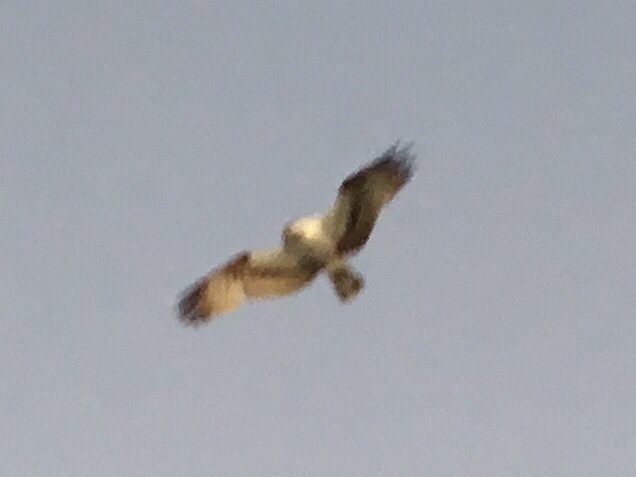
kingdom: Animalia
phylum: Chordata
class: Aves
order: Accipitriformes
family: Pandionidae
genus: Pandion
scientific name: Pandion haliaetus
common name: Osprey
